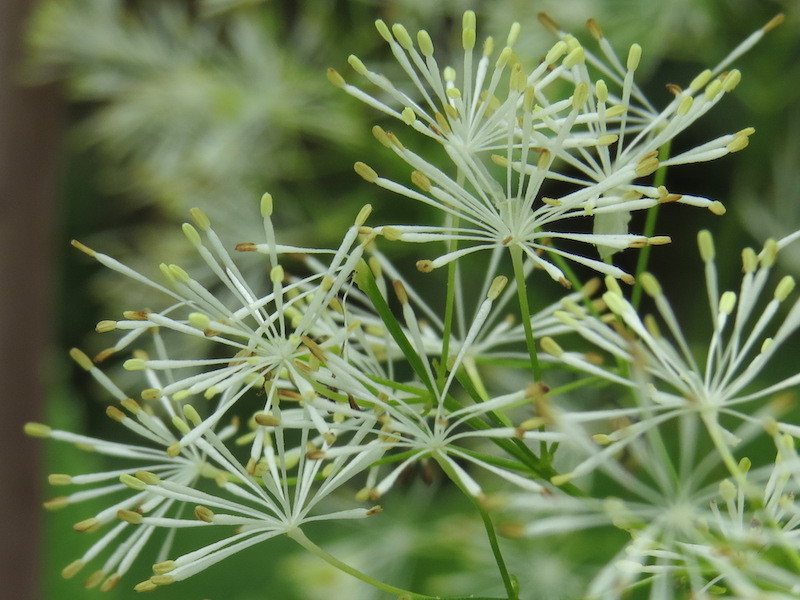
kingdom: Plantae
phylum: Tracheophyta
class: Magnoliopsida
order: Ranunculales
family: Ranunculaceae
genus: Thalictrum
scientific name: Thalictrum pubescens
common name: King-of-the-meadow
